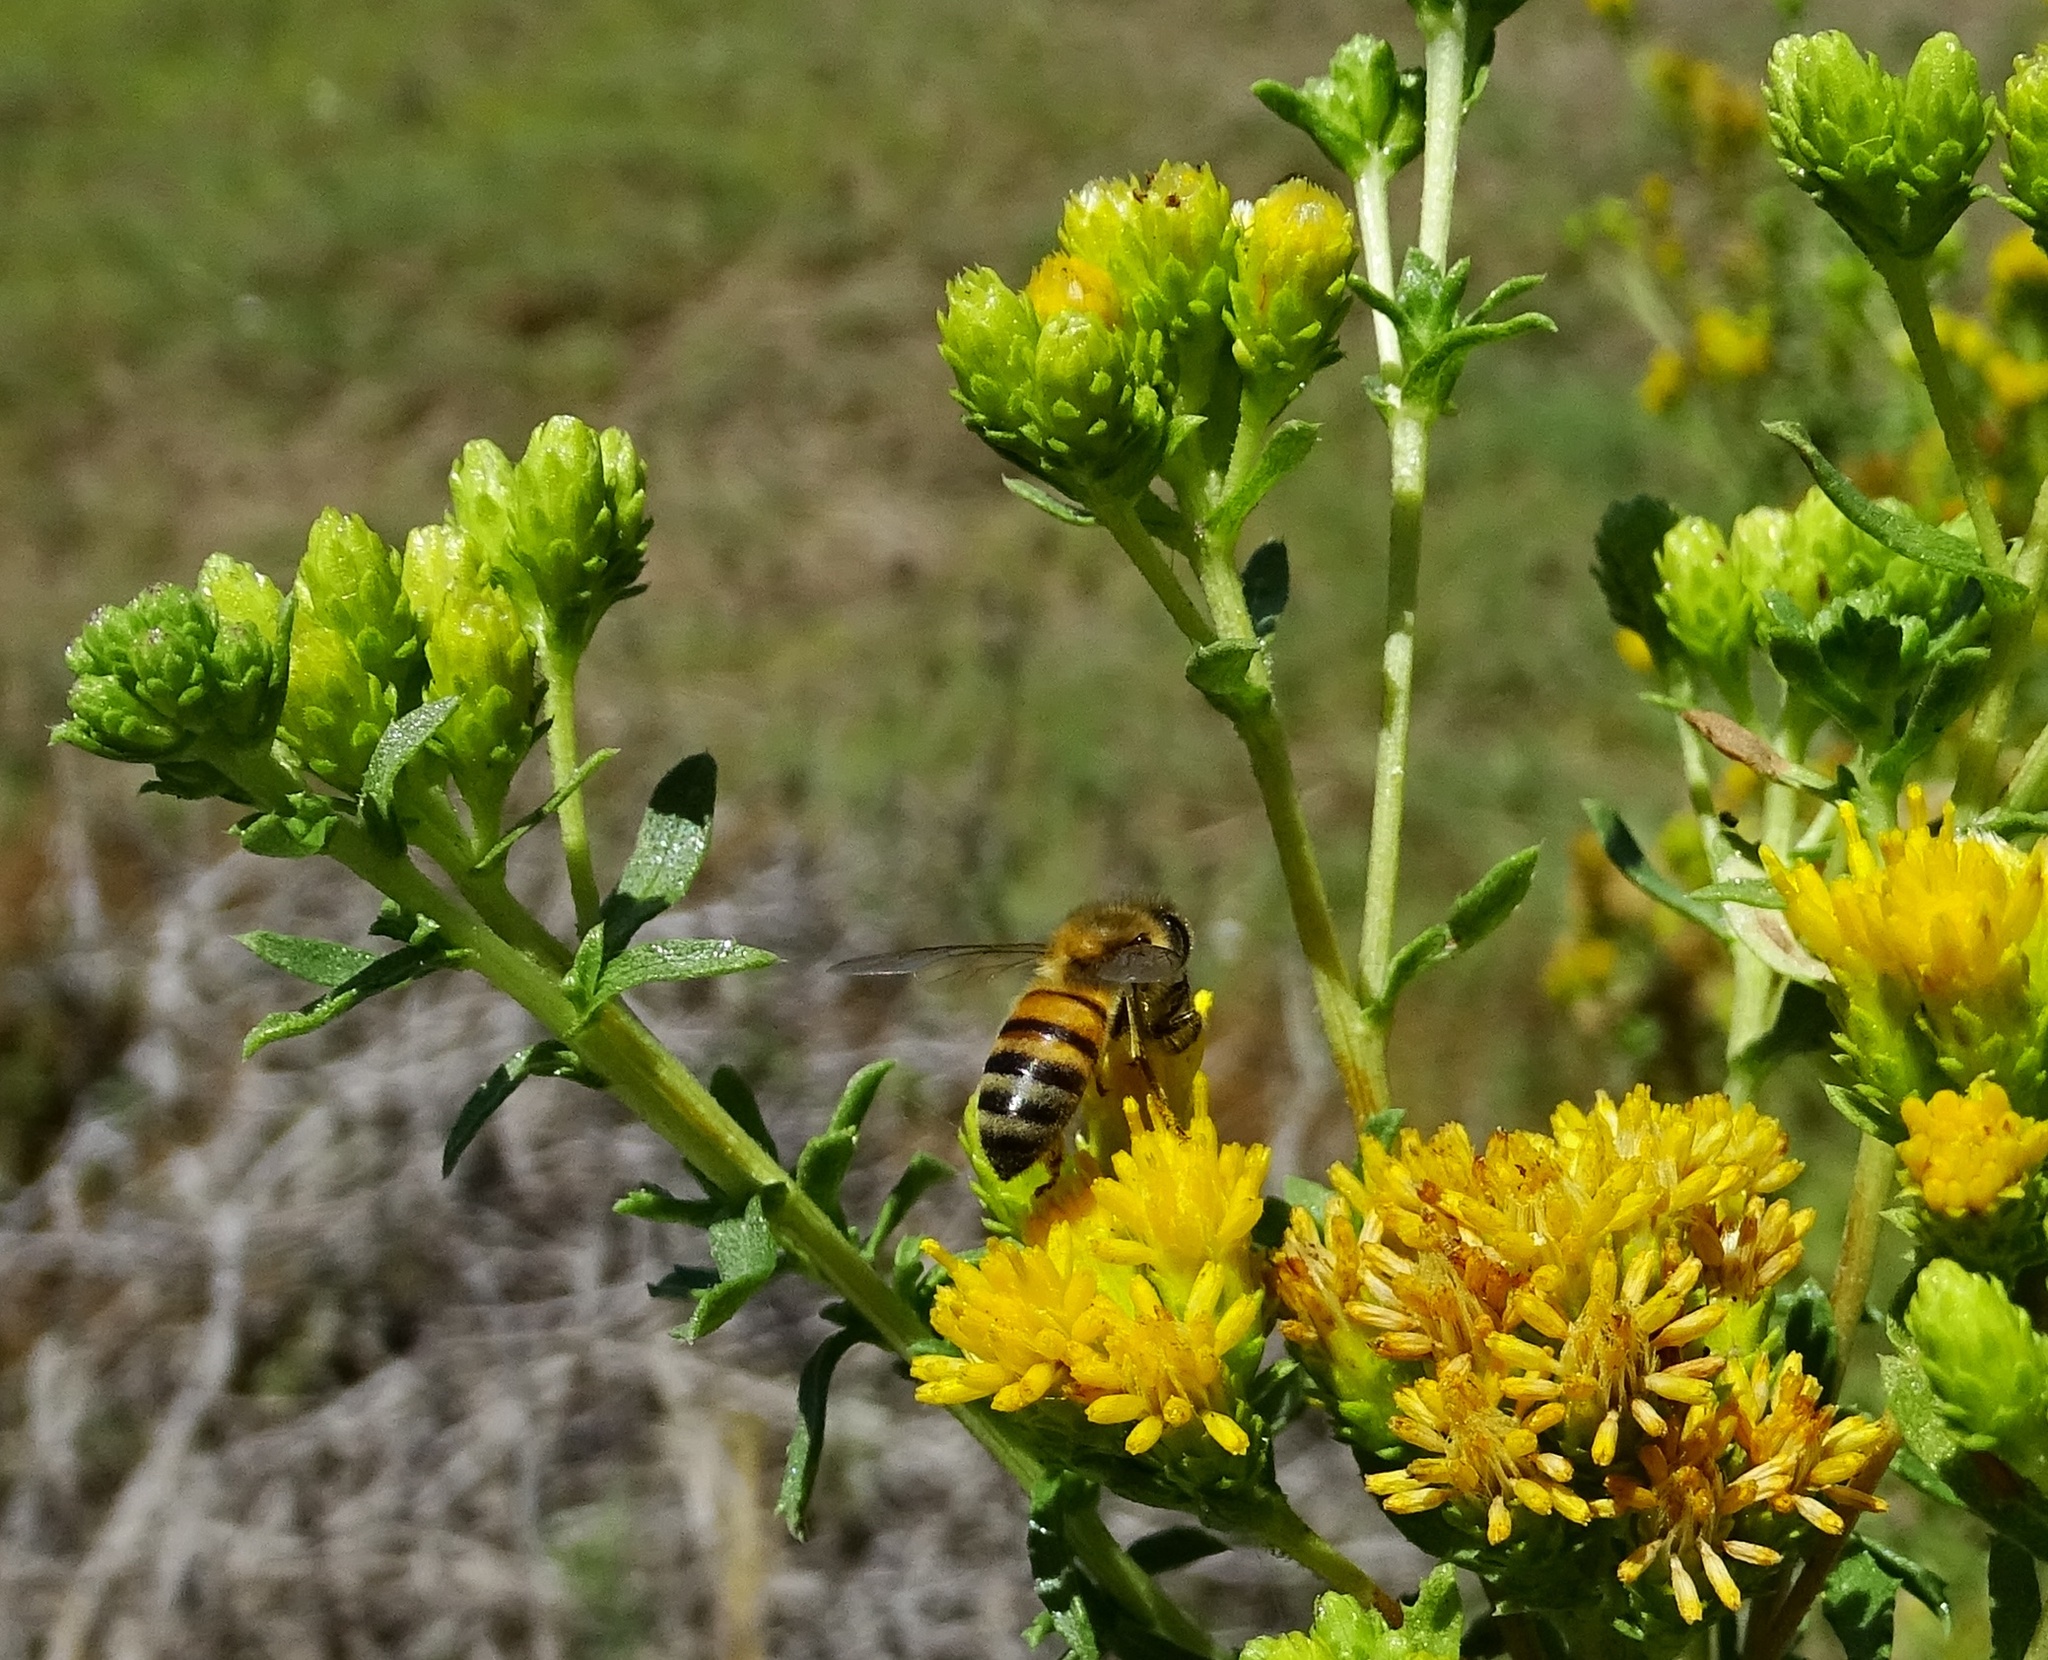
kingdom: Animalia
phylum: Arthropoda
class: Insecta
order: Hymenoptera
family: Apidae
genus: Apis
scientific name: Apis mellifera
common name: Honey bee
